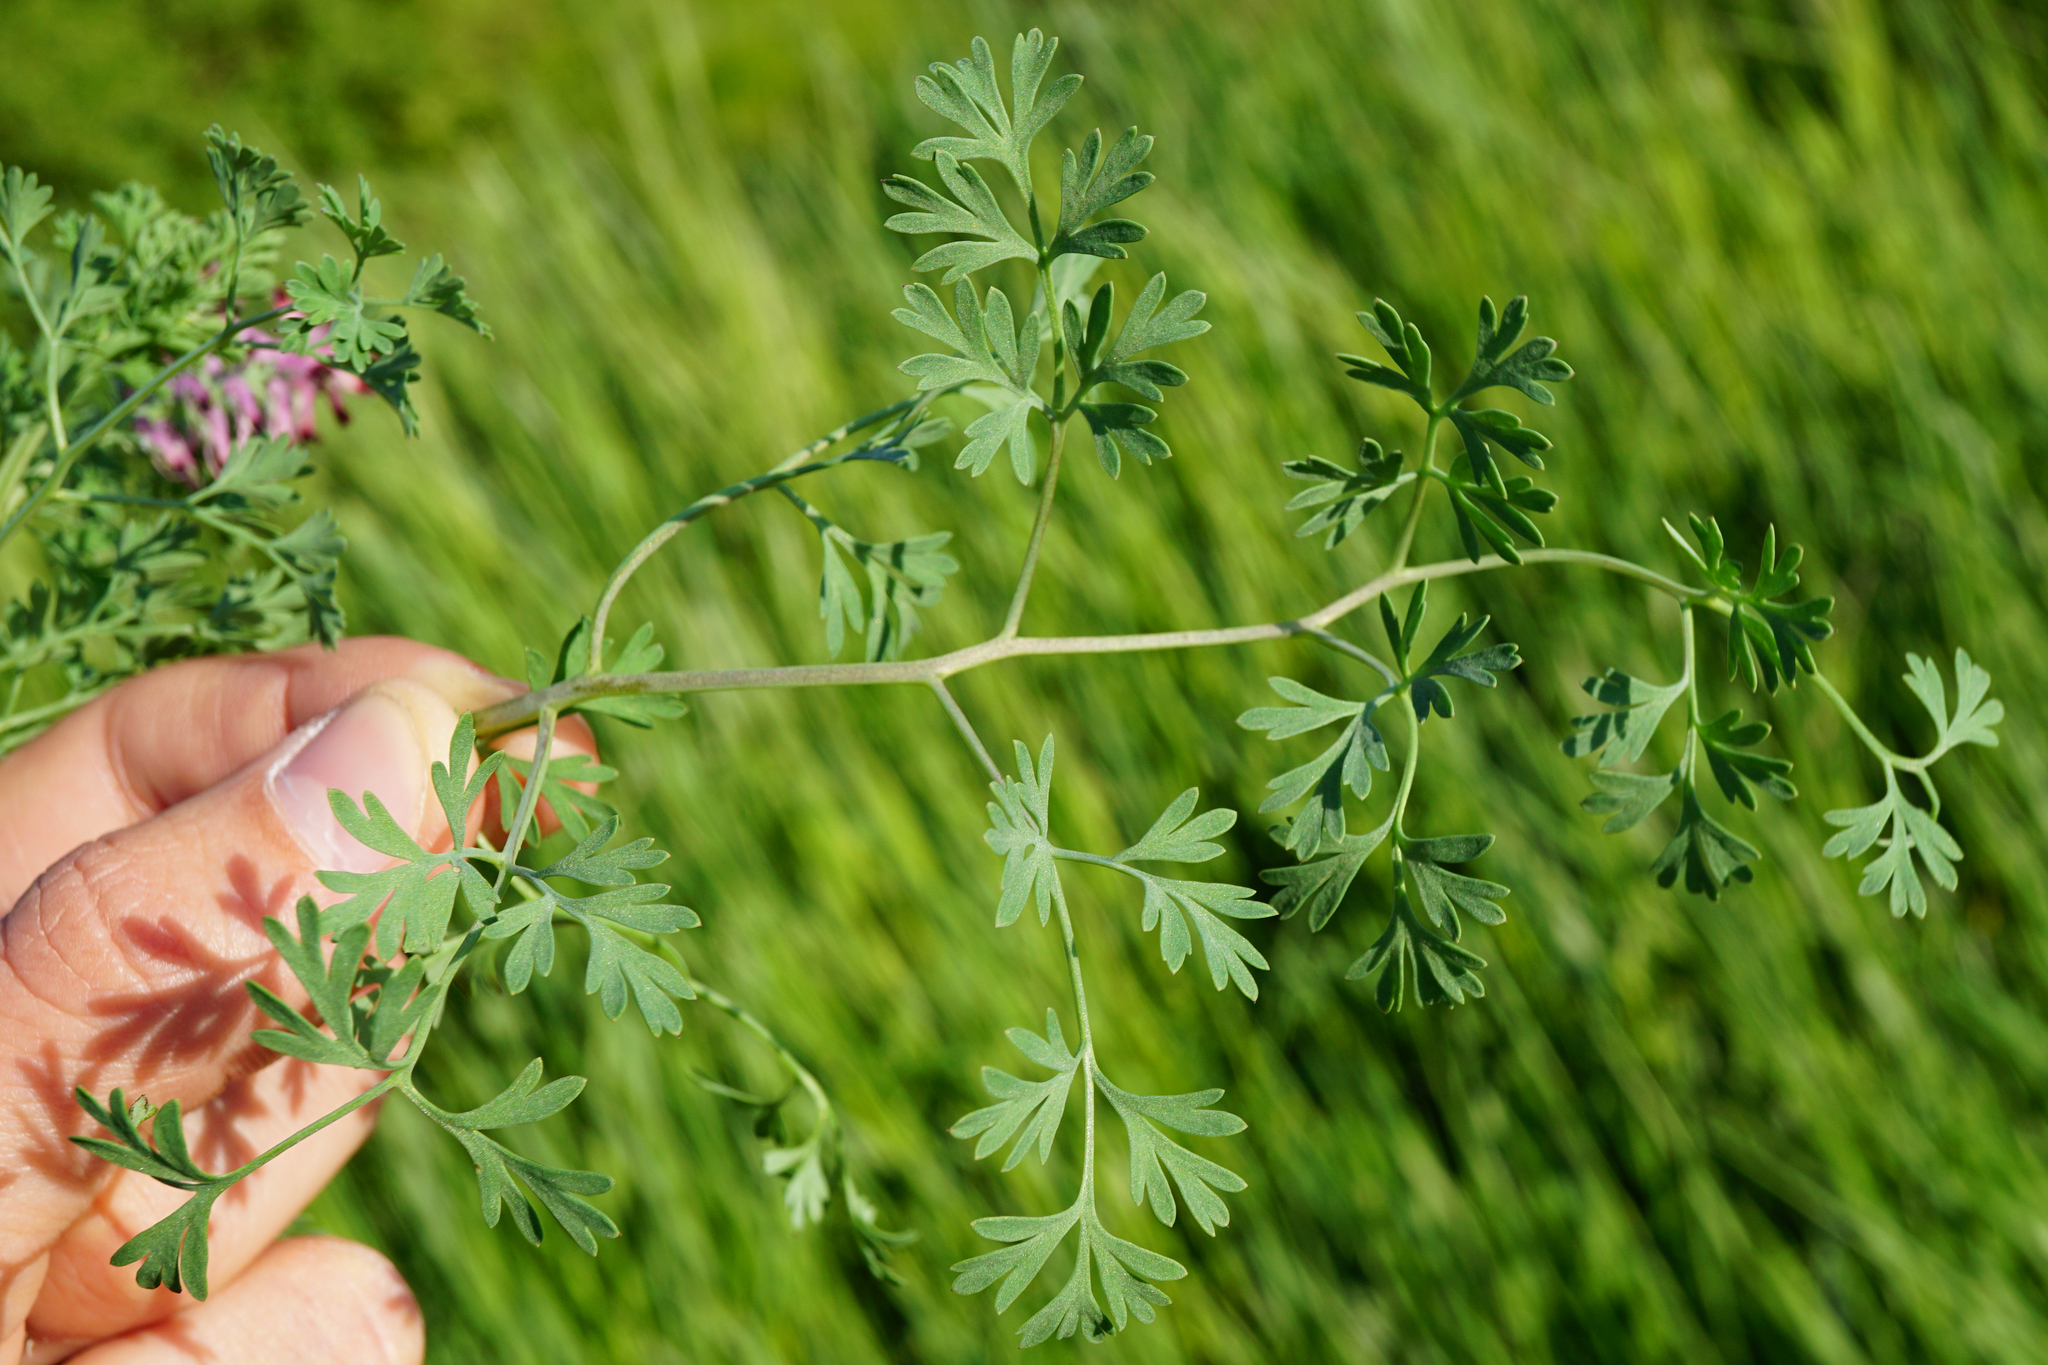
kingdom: Plantae
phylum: Tracheophyta
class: Magnoliopsida
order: Ranunculales
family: Papaveraceae
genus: Fumaria
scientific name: Fumaria officinalis
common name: Common fumitory
